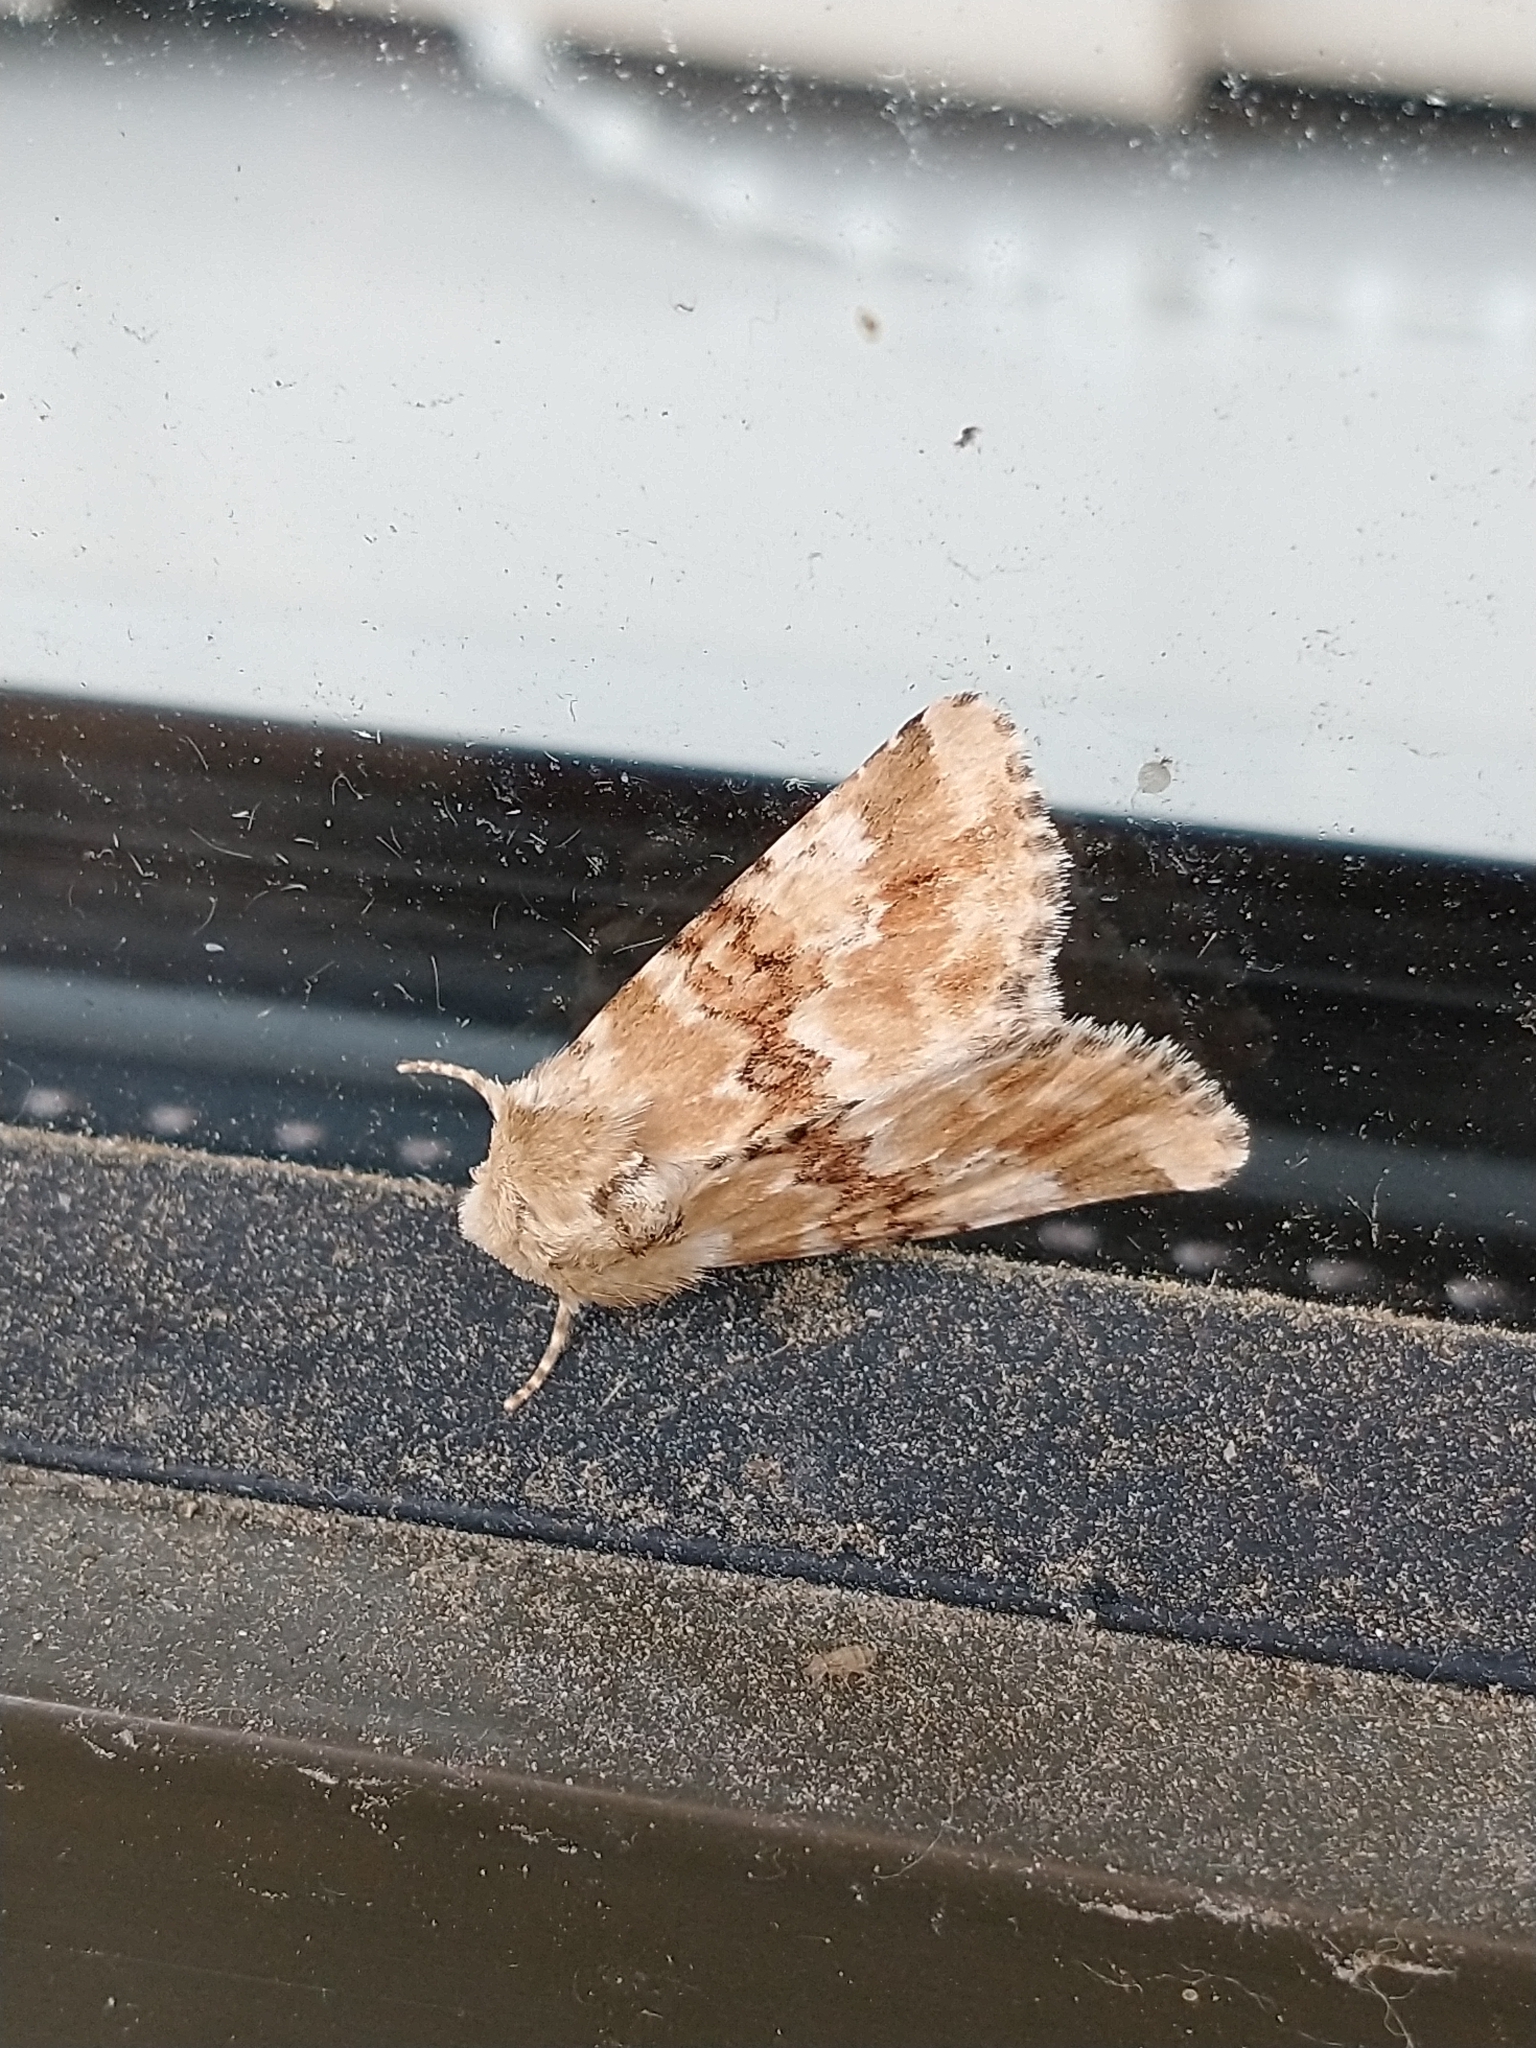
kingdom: Animalia
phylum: Arthropoda
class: Insecta
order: Lepidoptera
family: Noctuidae
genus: Eremobia
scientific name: Eremobia ochroleuca
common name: Dusky sallow
